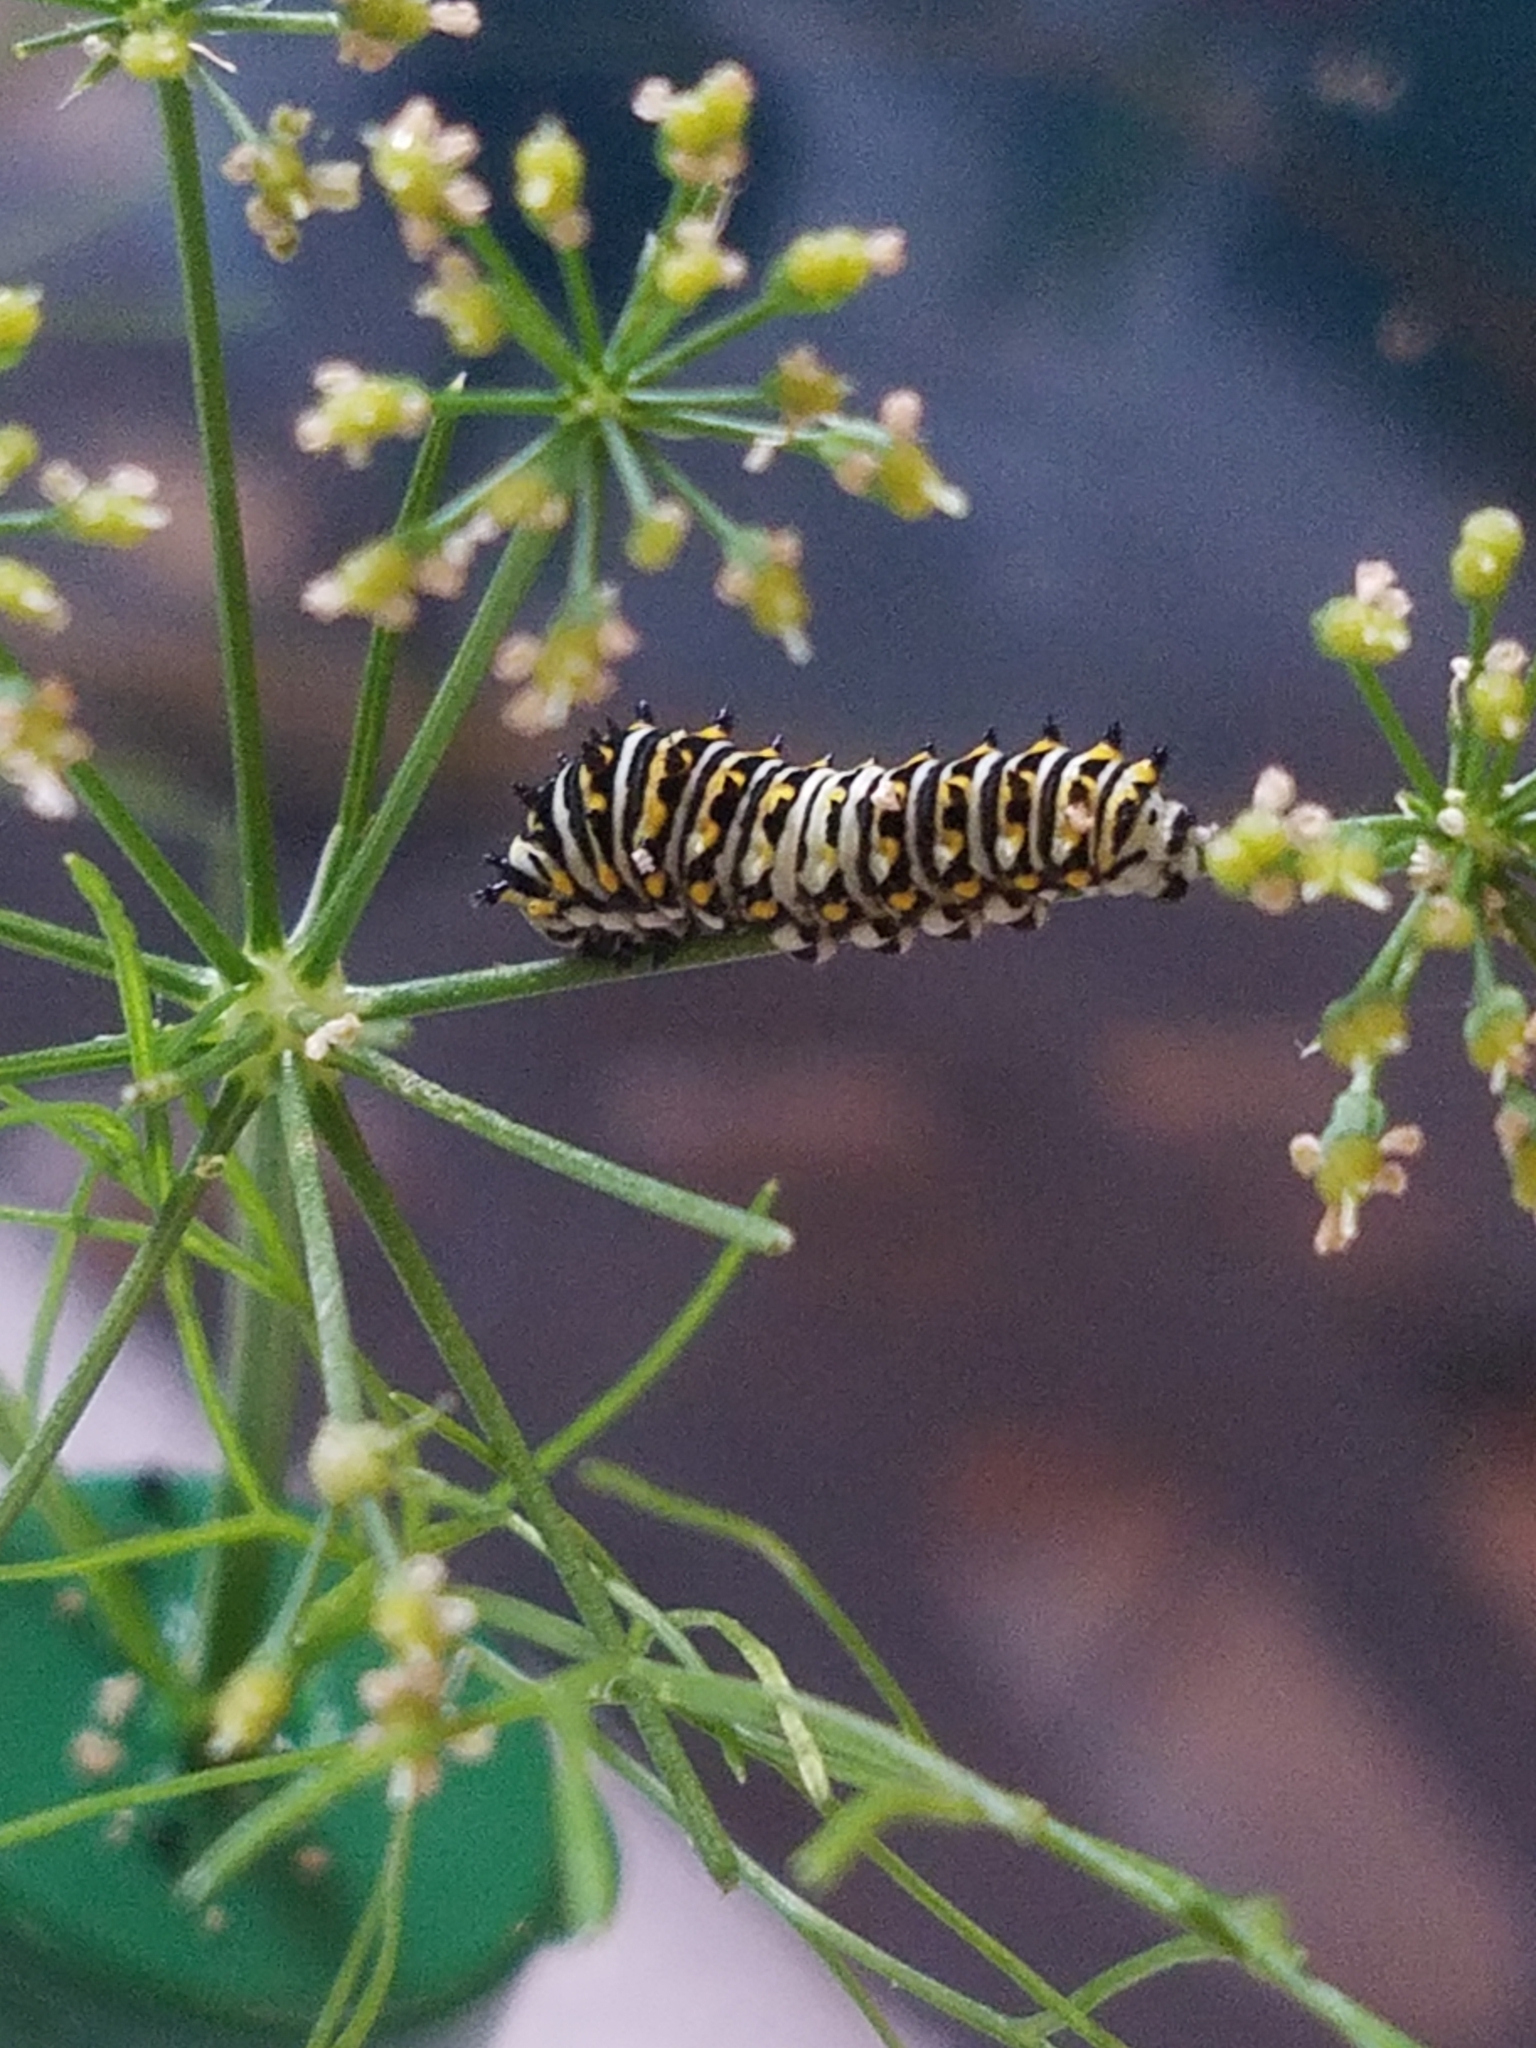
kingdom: Animalia
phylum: Arthropoda
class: Insecta
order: Lepidoptera
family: Papilionidae
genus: Papilio
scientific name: Papilio polyxenes
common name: Black swallowtail
